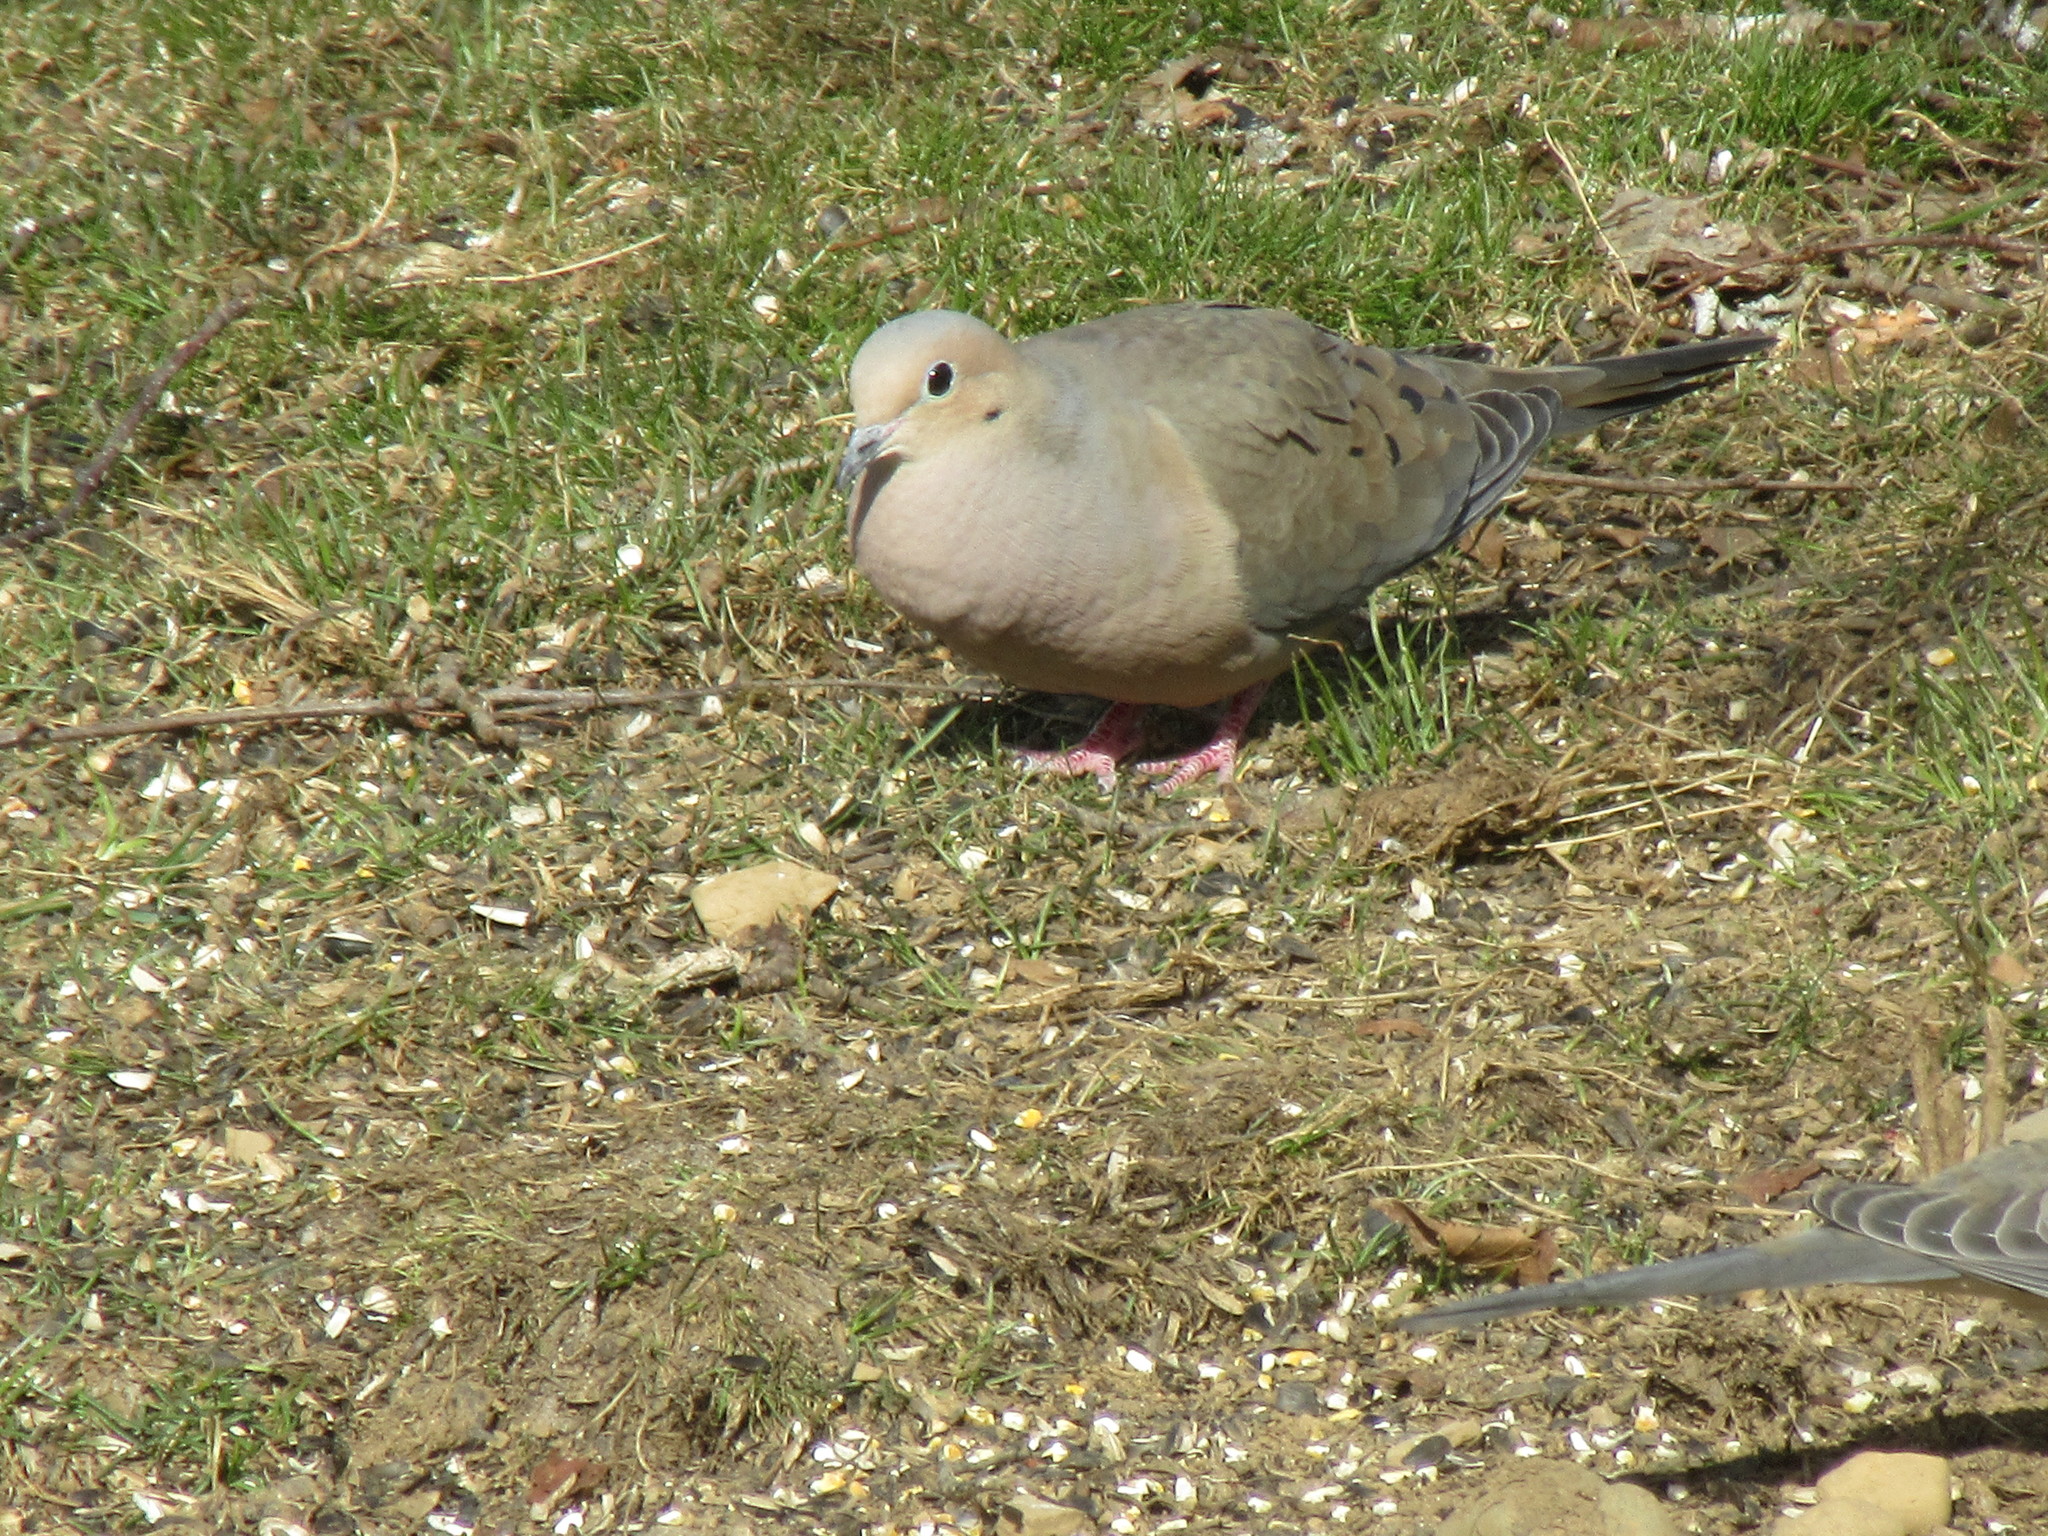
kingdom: Animalia
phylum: Chordata
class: Aves
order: Columbiformes
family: Columbidae
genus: Zenaida
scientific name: Zenaida macroura
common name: Mourning dove
